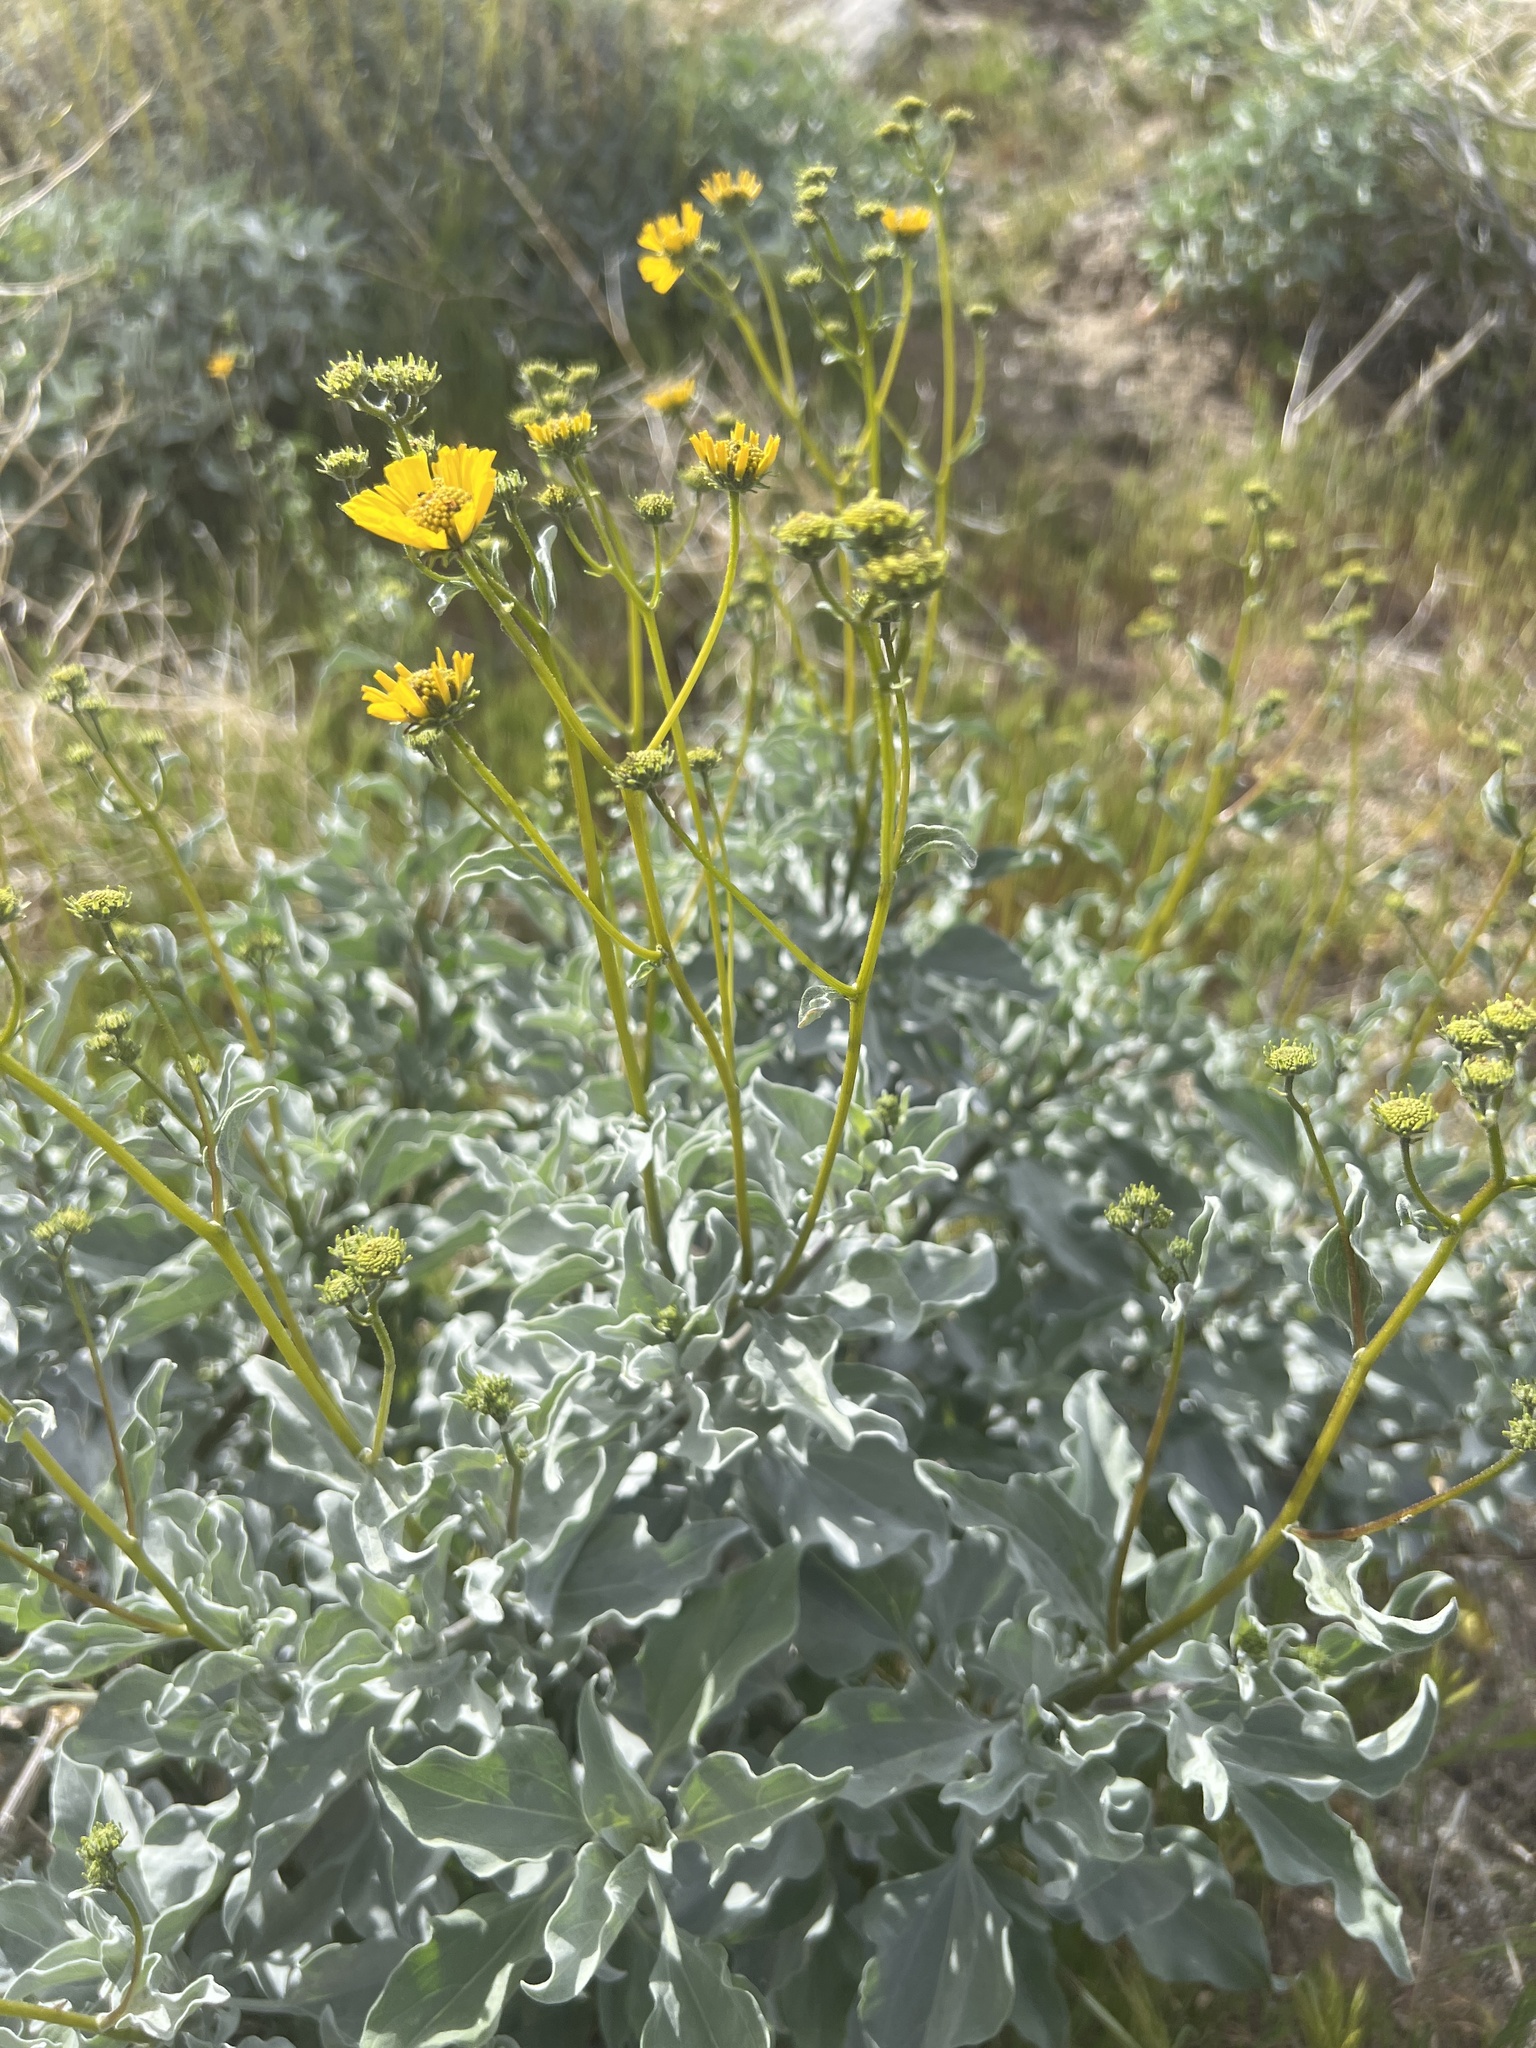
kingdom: Plantae
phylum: Tracheophyta
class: Magnoliopsida
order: Asterales
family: Asteraceae
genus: Encelia
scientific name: Encelia farinosa
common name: Brittlebush
